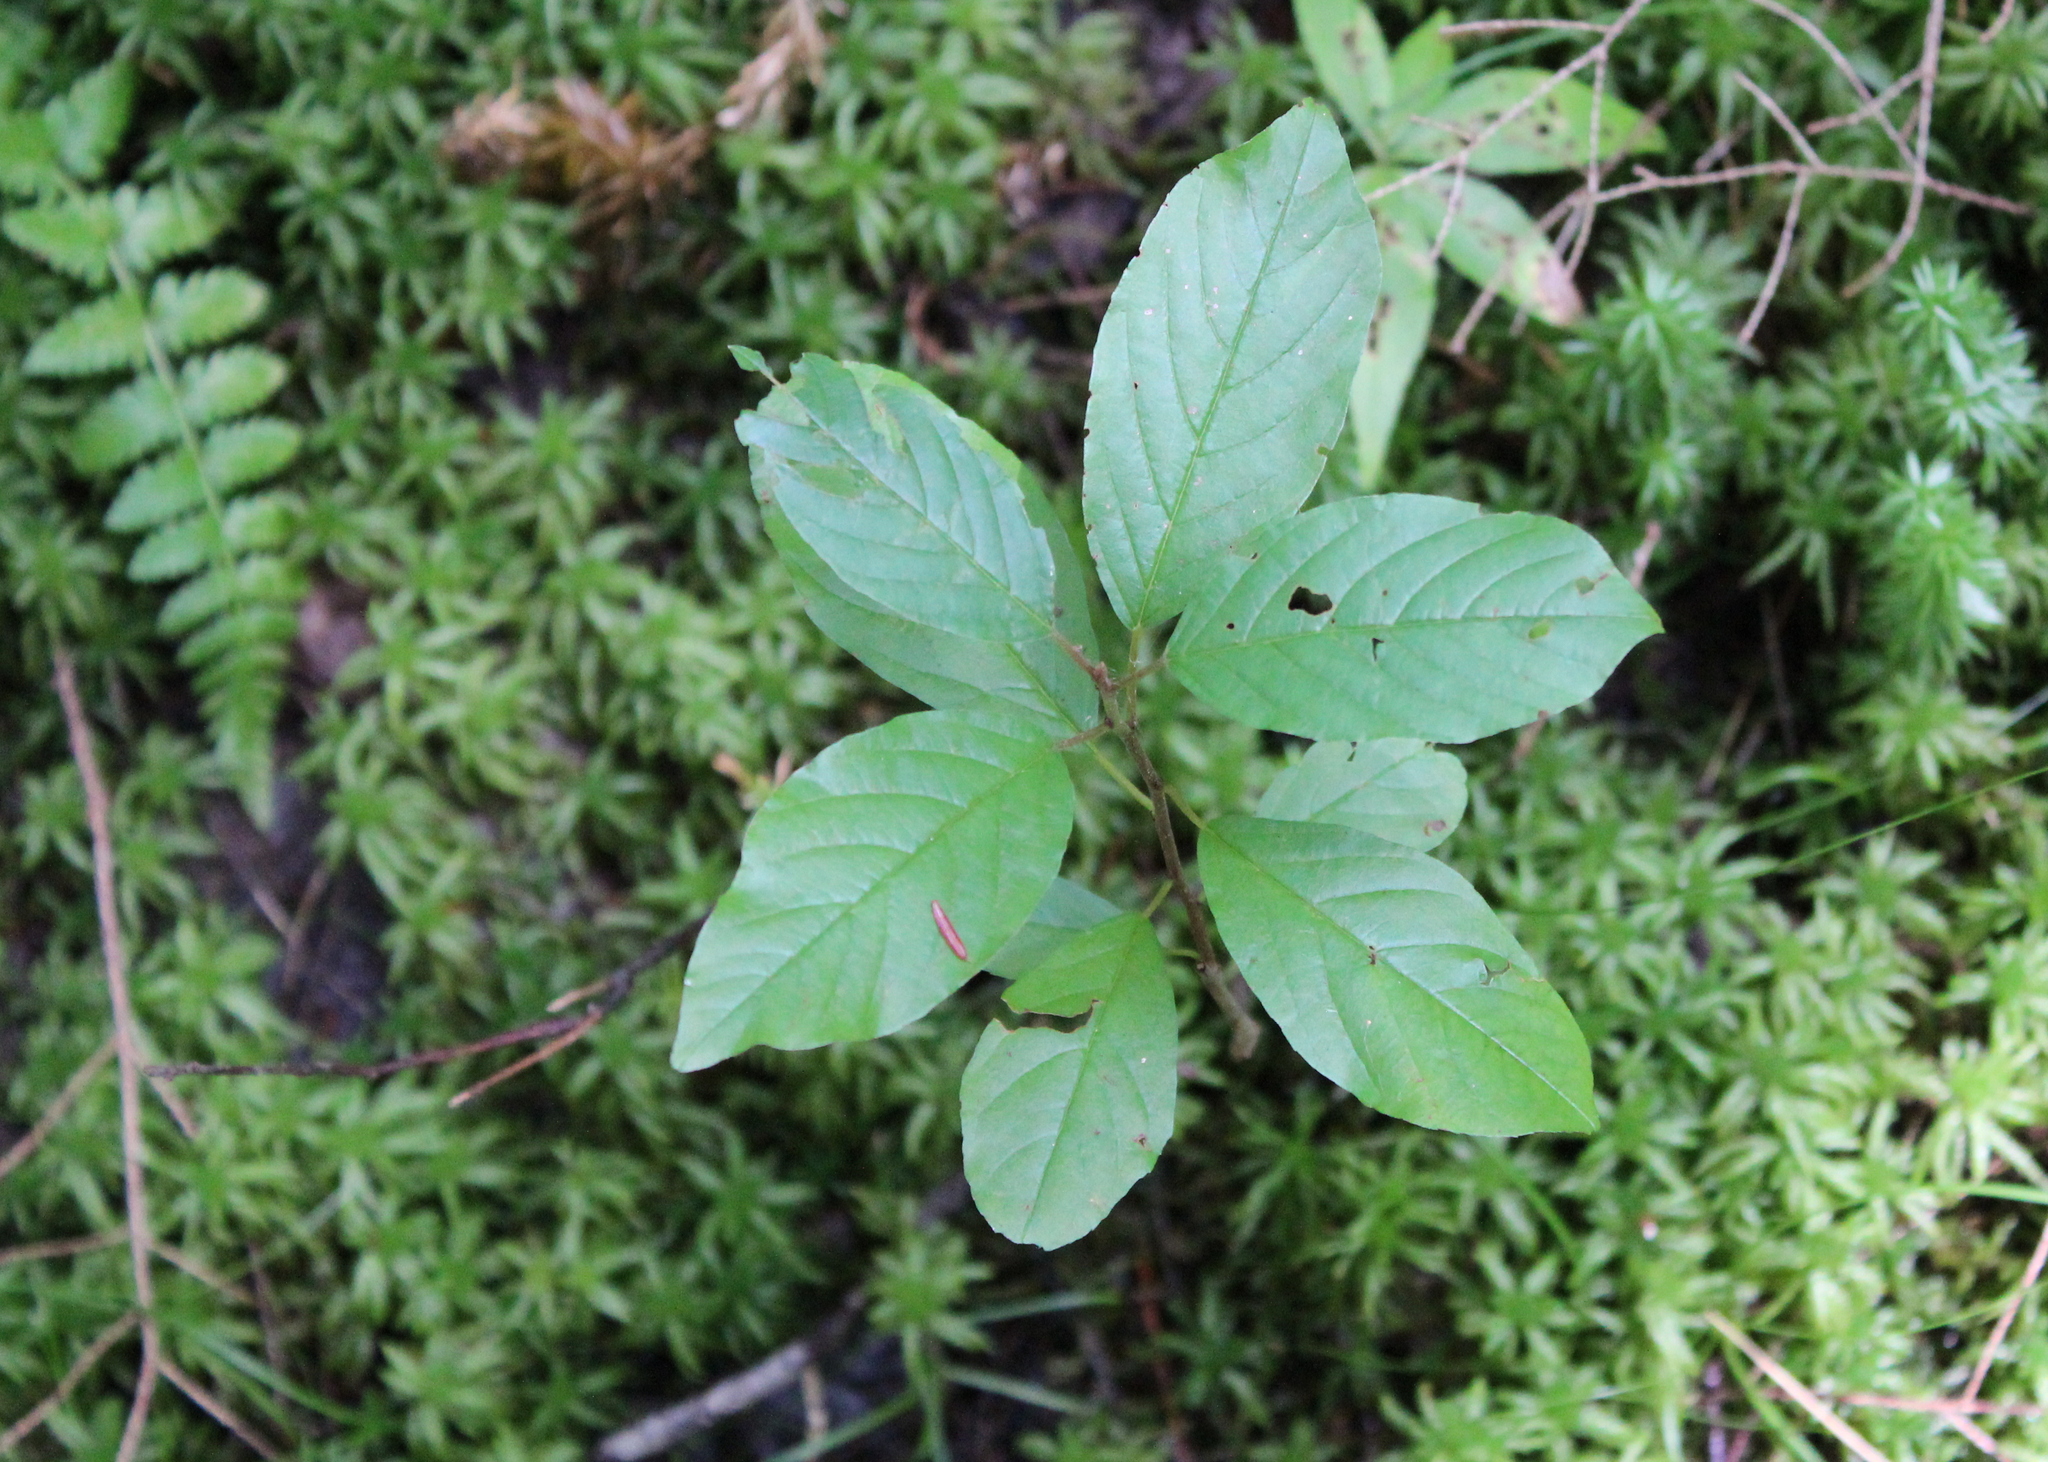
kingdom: Plantae
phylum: Tracheophyta
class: Magnoliopsida
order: Rosales
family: Rhamnaceae
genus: Frangula
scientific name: Frangula alnus
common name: Alder buckthorn
